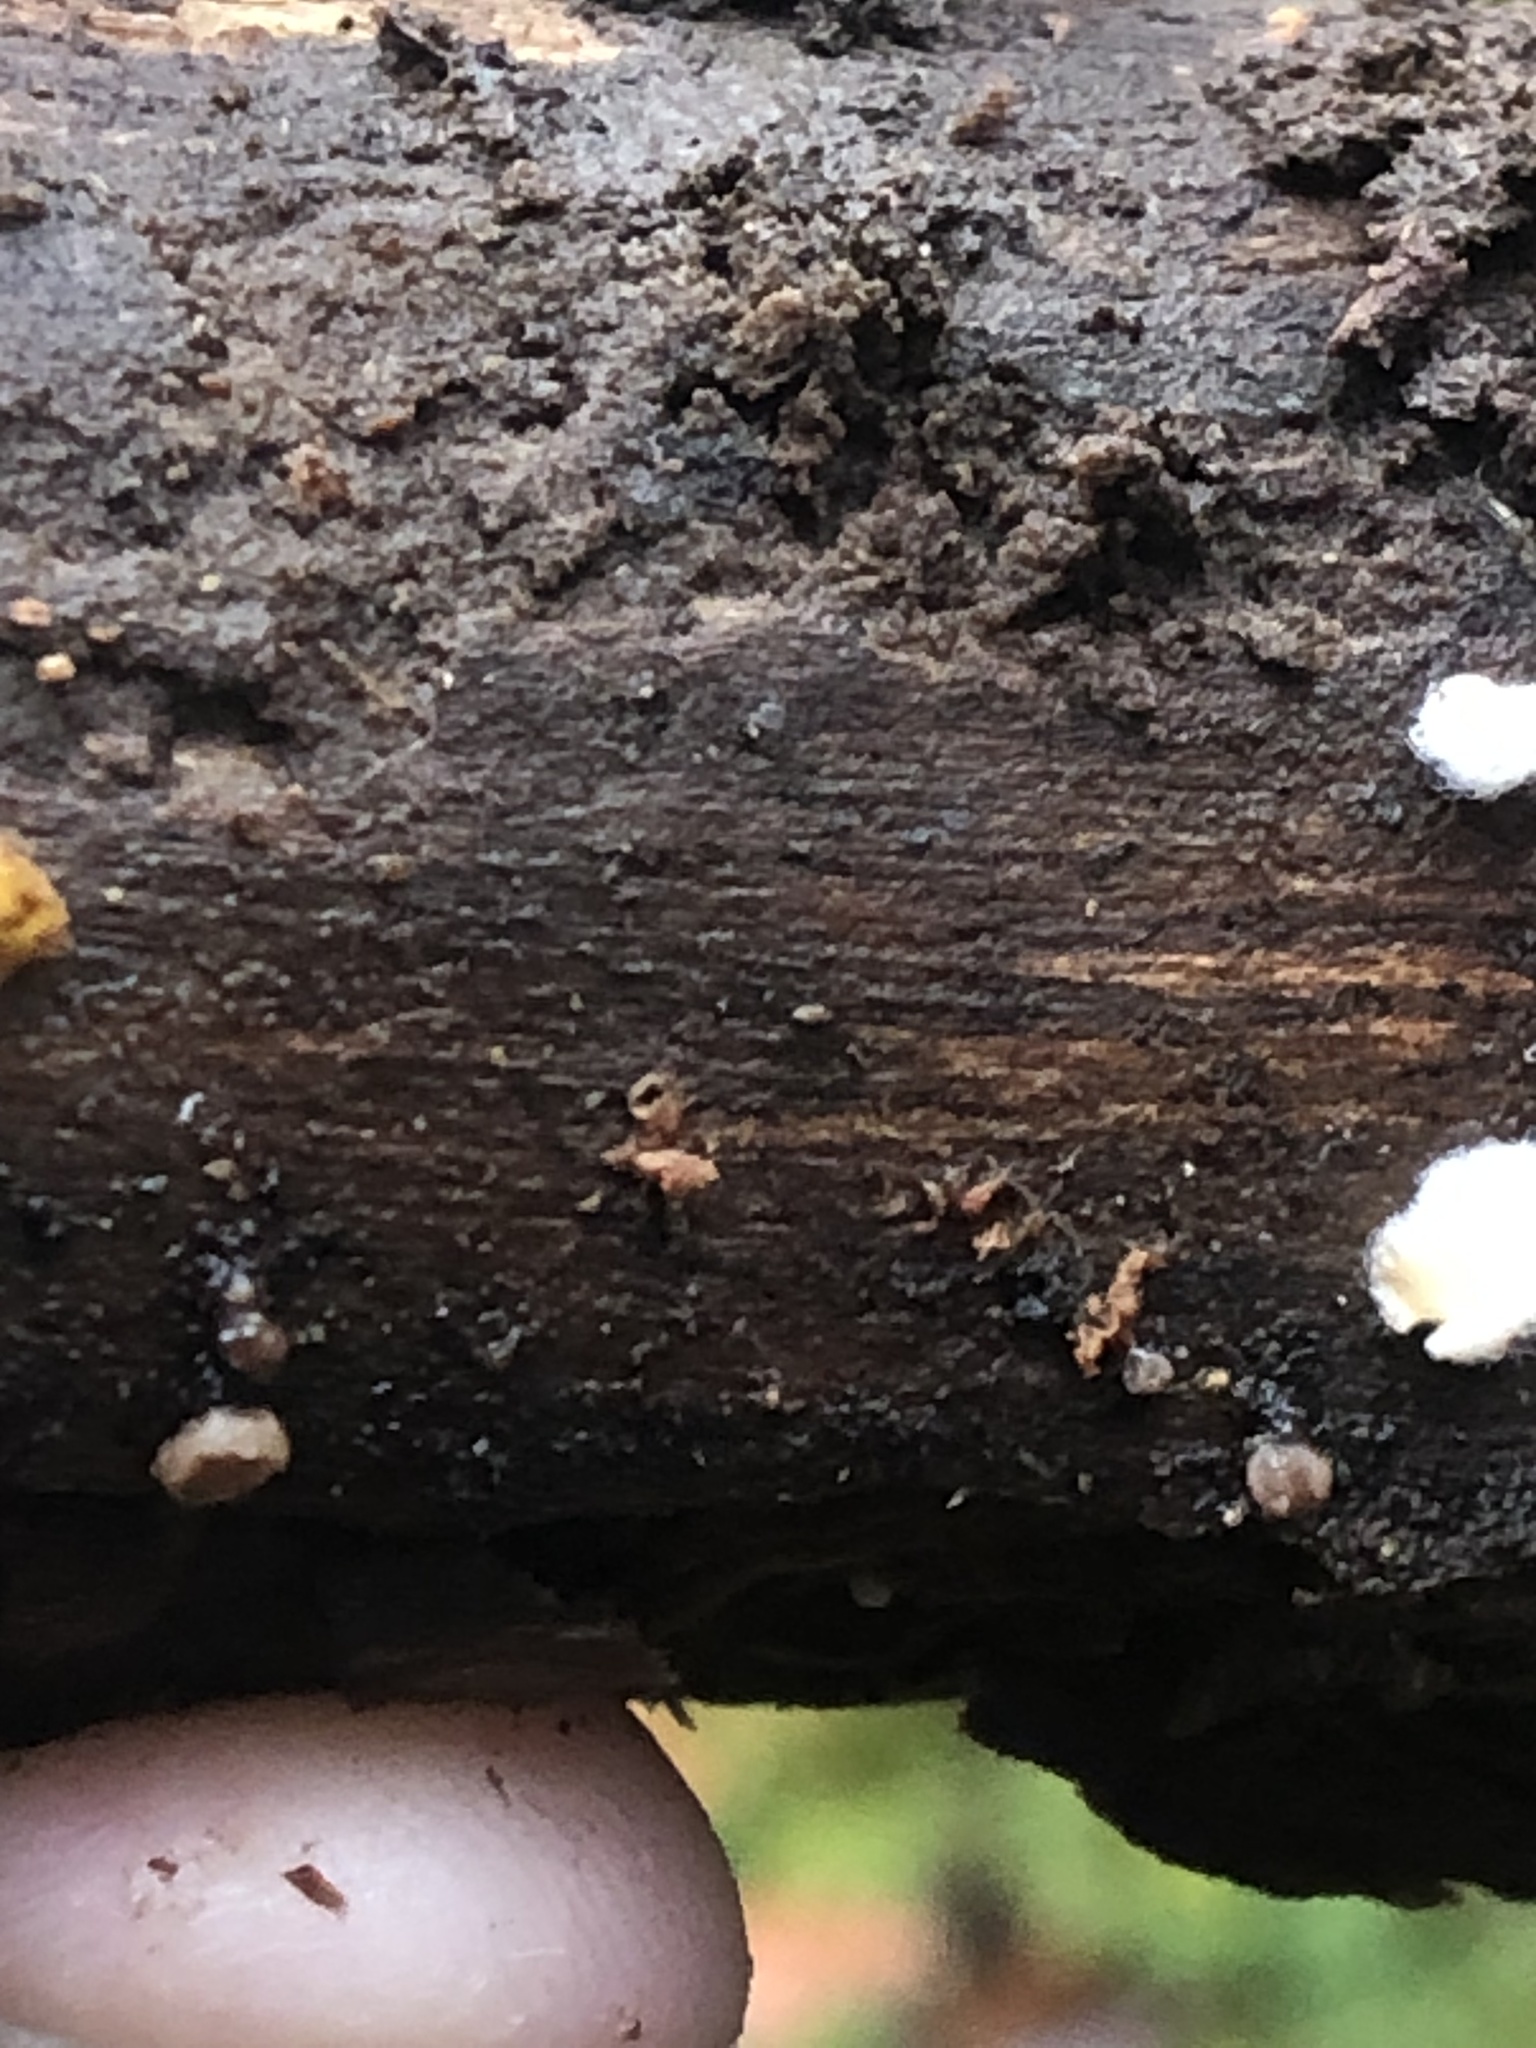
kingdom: Fungi
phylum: Basidiomycota
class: Agaricomycetes
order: Agaricales
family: Crepidotaceae
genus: Crepidotus
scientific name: Crepidotus variabilis
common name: Variable oysterling
